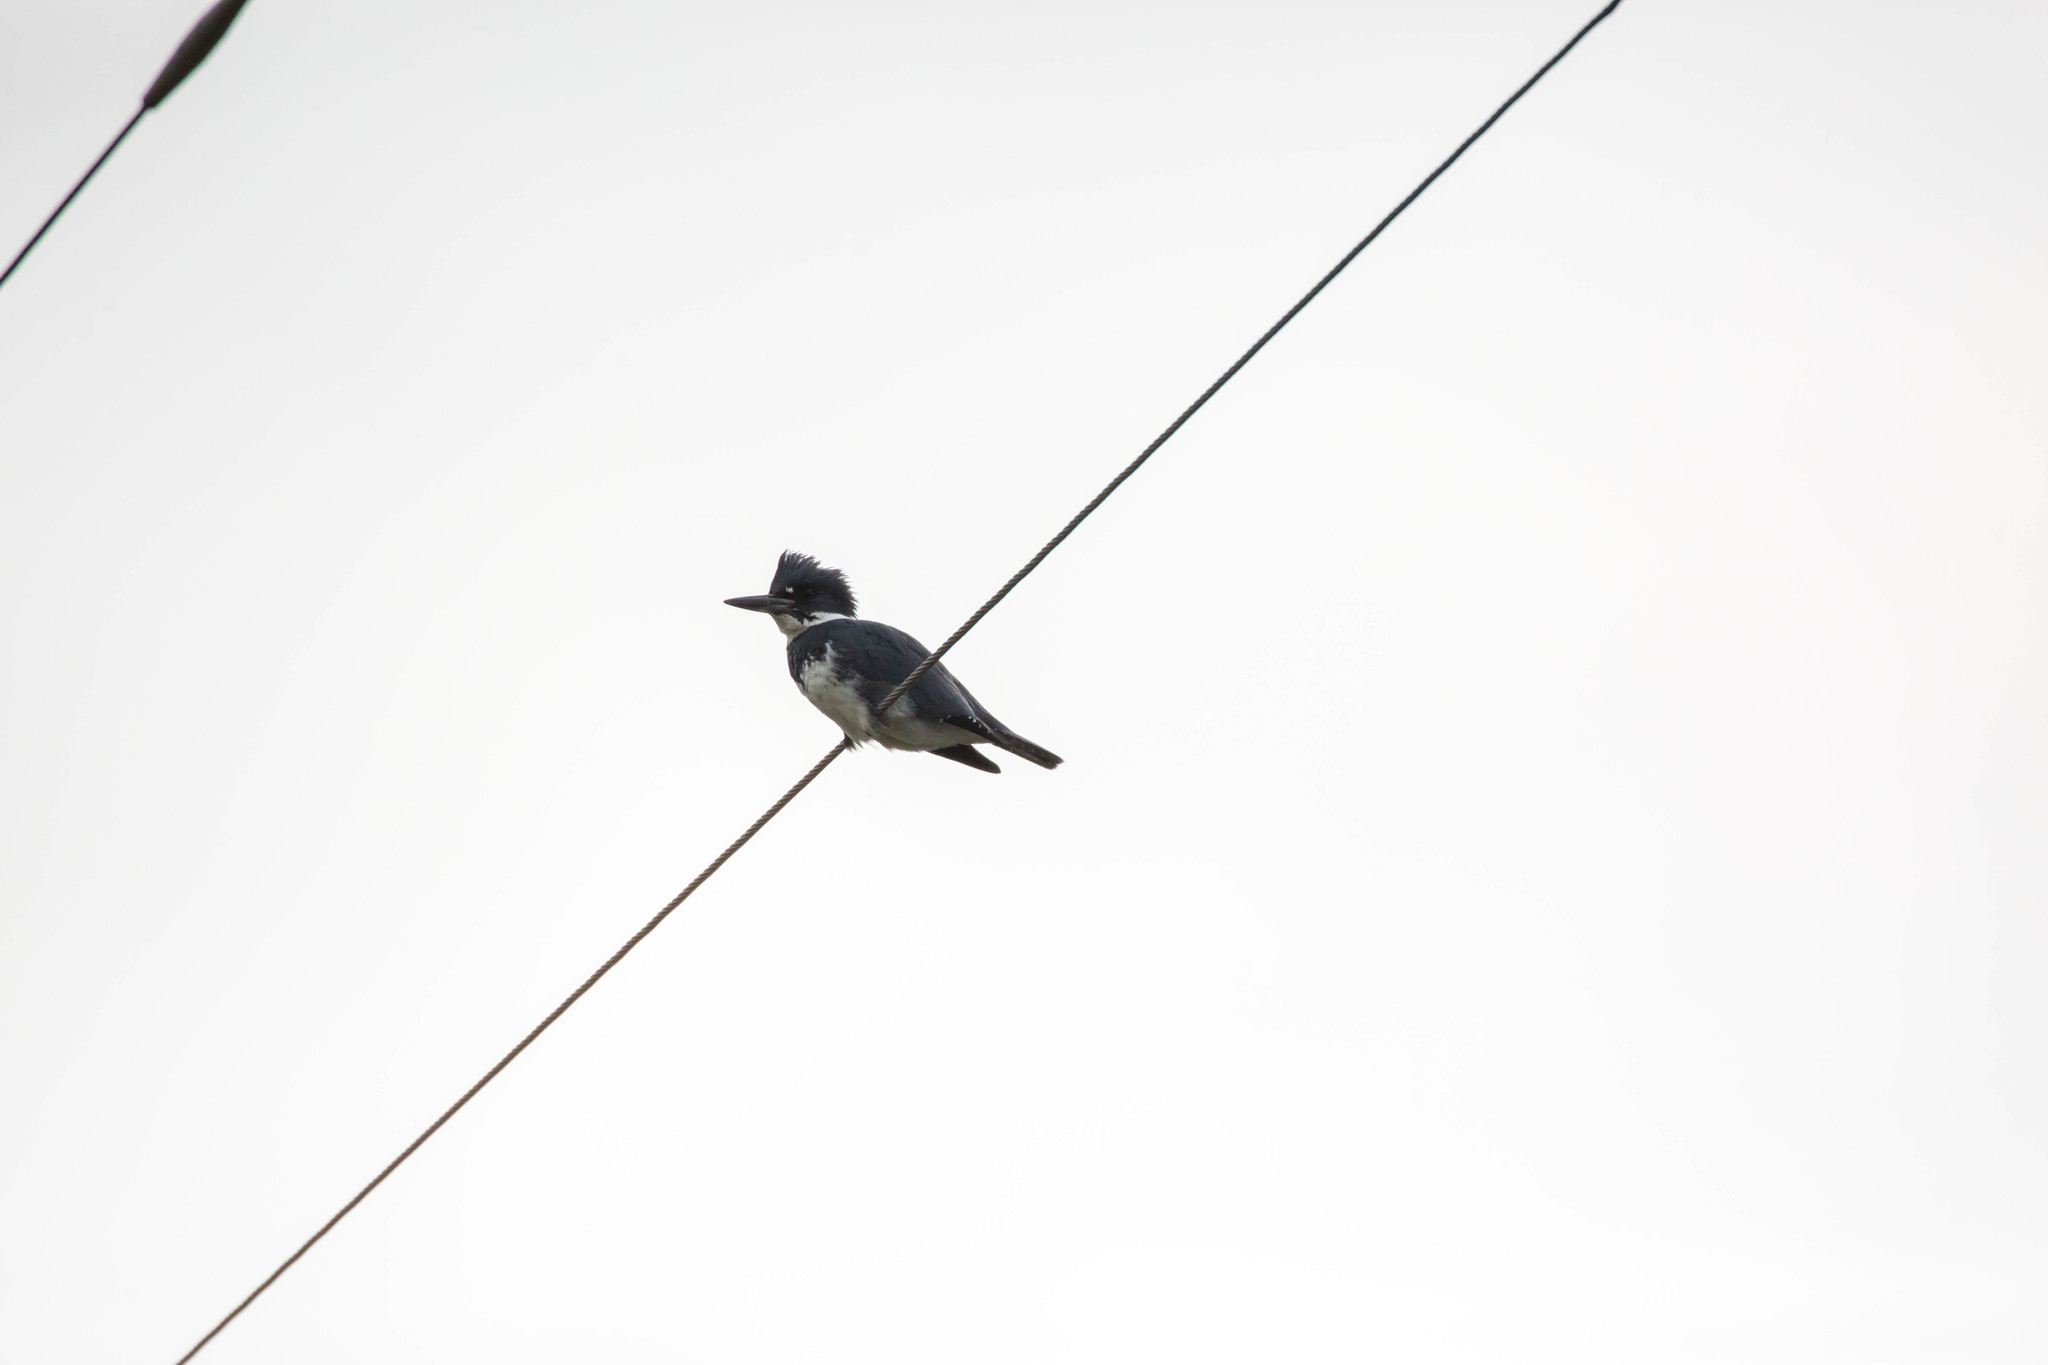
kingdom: Animalia
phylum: Chordata
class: Aves
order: Coraciiformes
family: Alcedinidae
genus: Megaceryle
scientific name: Megaceryle alcyon
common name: Belted kingfisher
